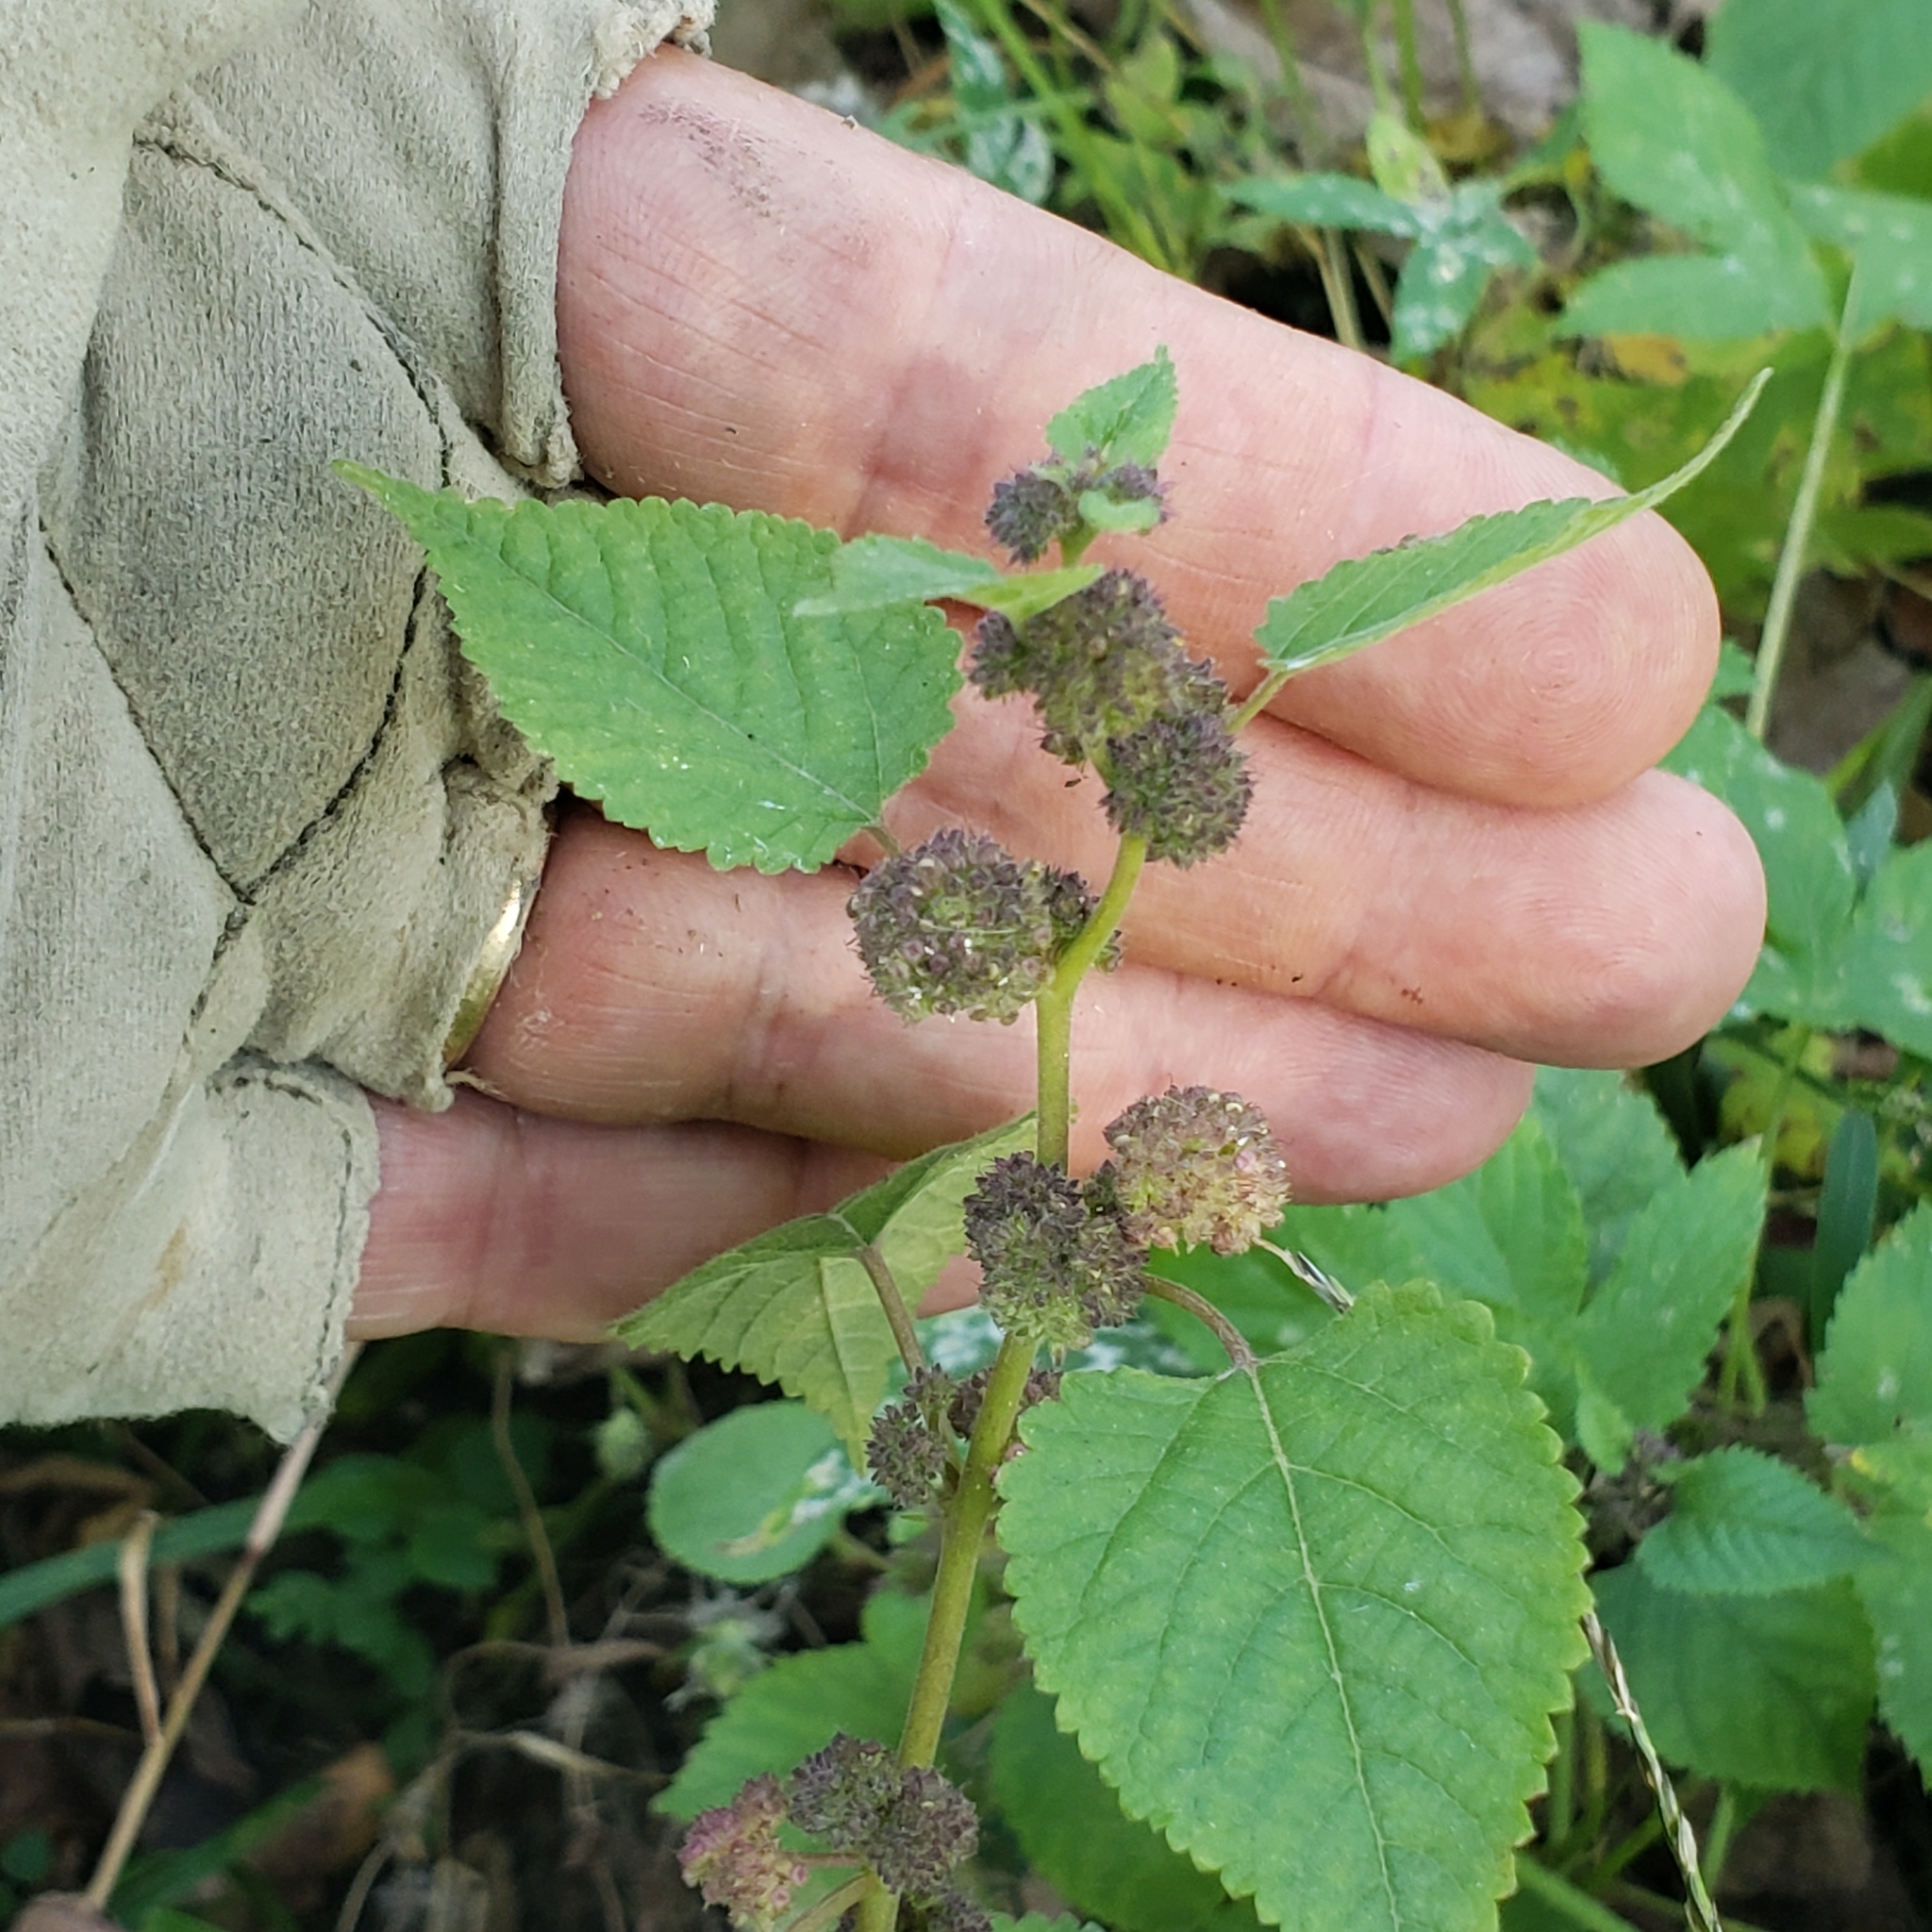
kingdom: Plantae
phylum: Tracheophyta
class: Magnoliopsida
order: Rosales
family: Moraceae
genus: Fatoua
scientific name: Fatoua villosa
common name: Hairy crabweed
